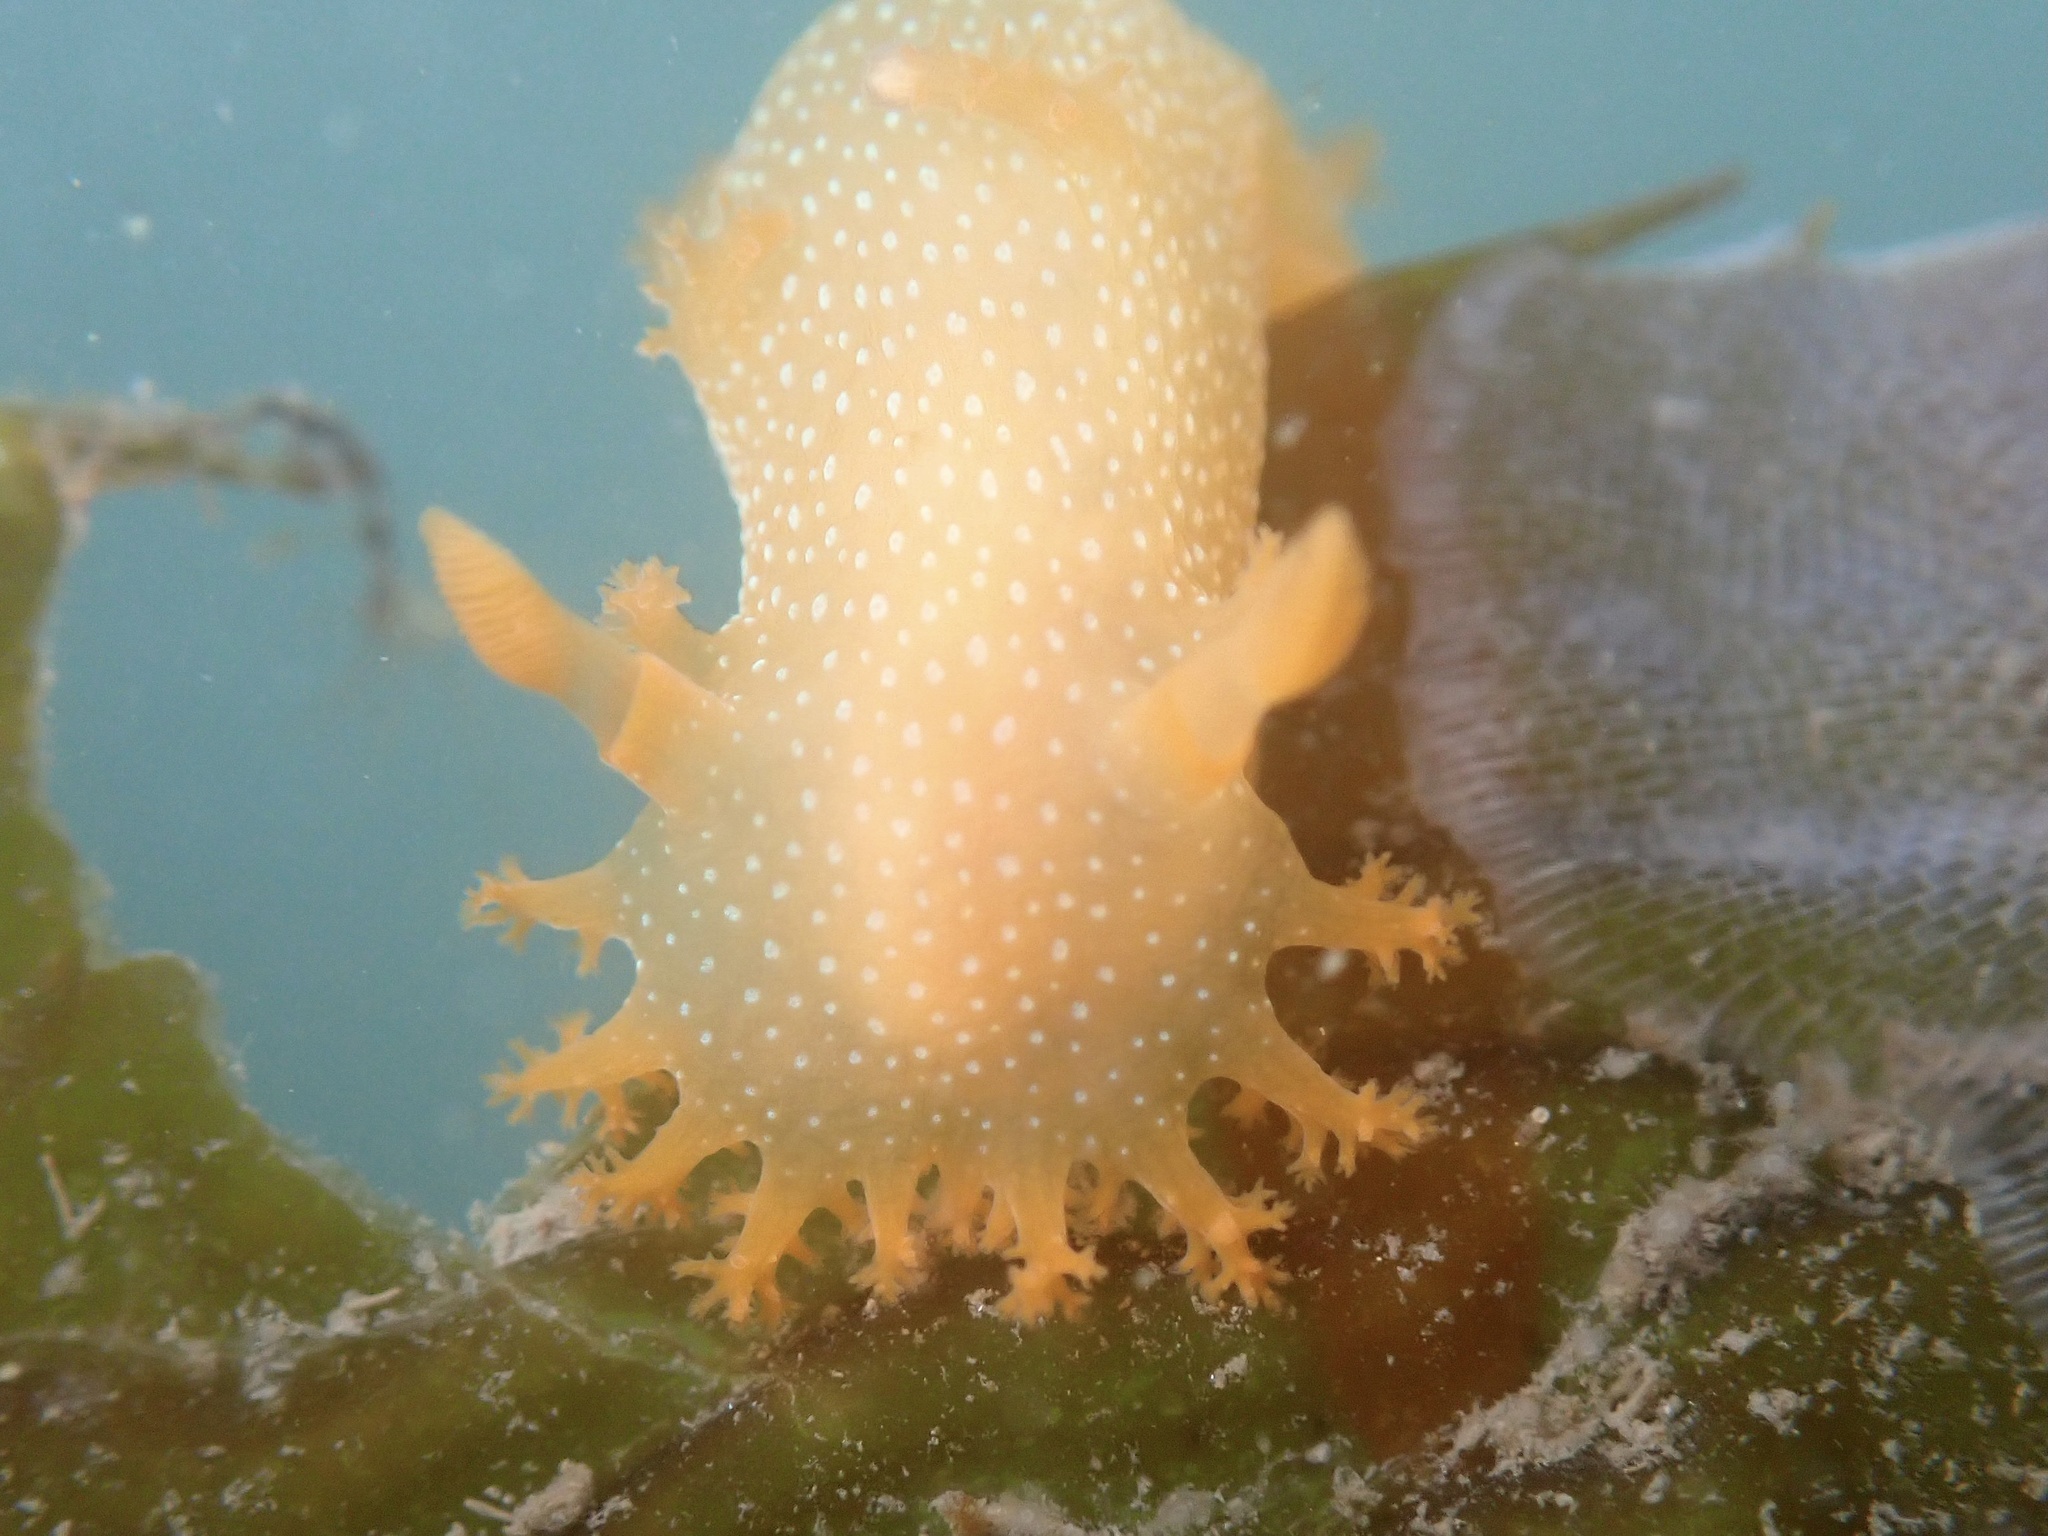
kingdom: Animalia
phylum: Mollusca
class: Gastropoda
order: Nudibranchia
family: Polyceridae
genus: Triopha
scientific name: Triopha maculata
